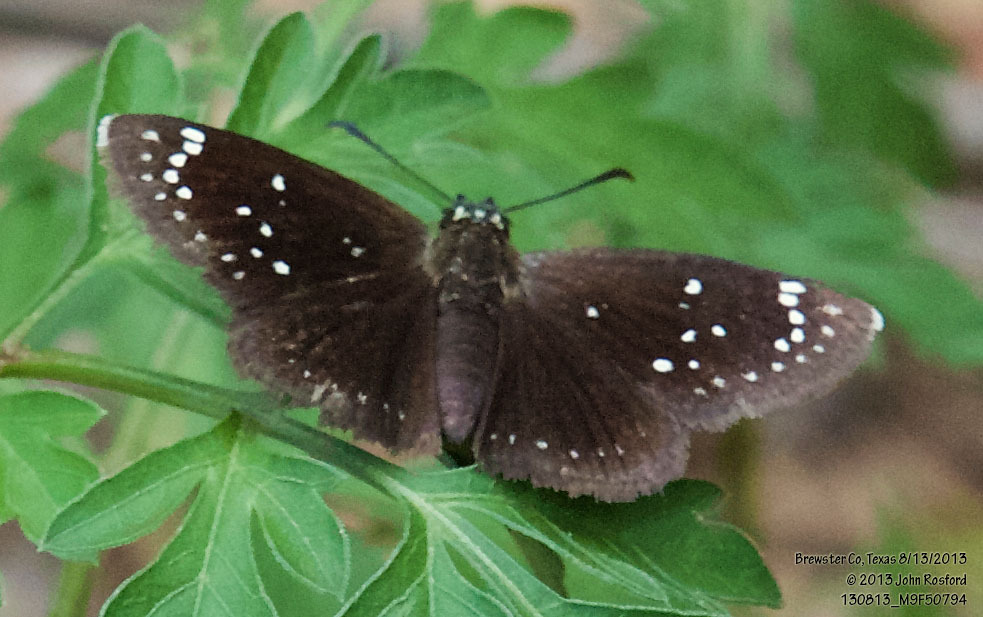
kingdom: Animalia
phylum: Arthropoda
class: Insecta
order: Lepidoptera
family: Hesperiidae
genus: Pholisora
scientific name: Pholisora
